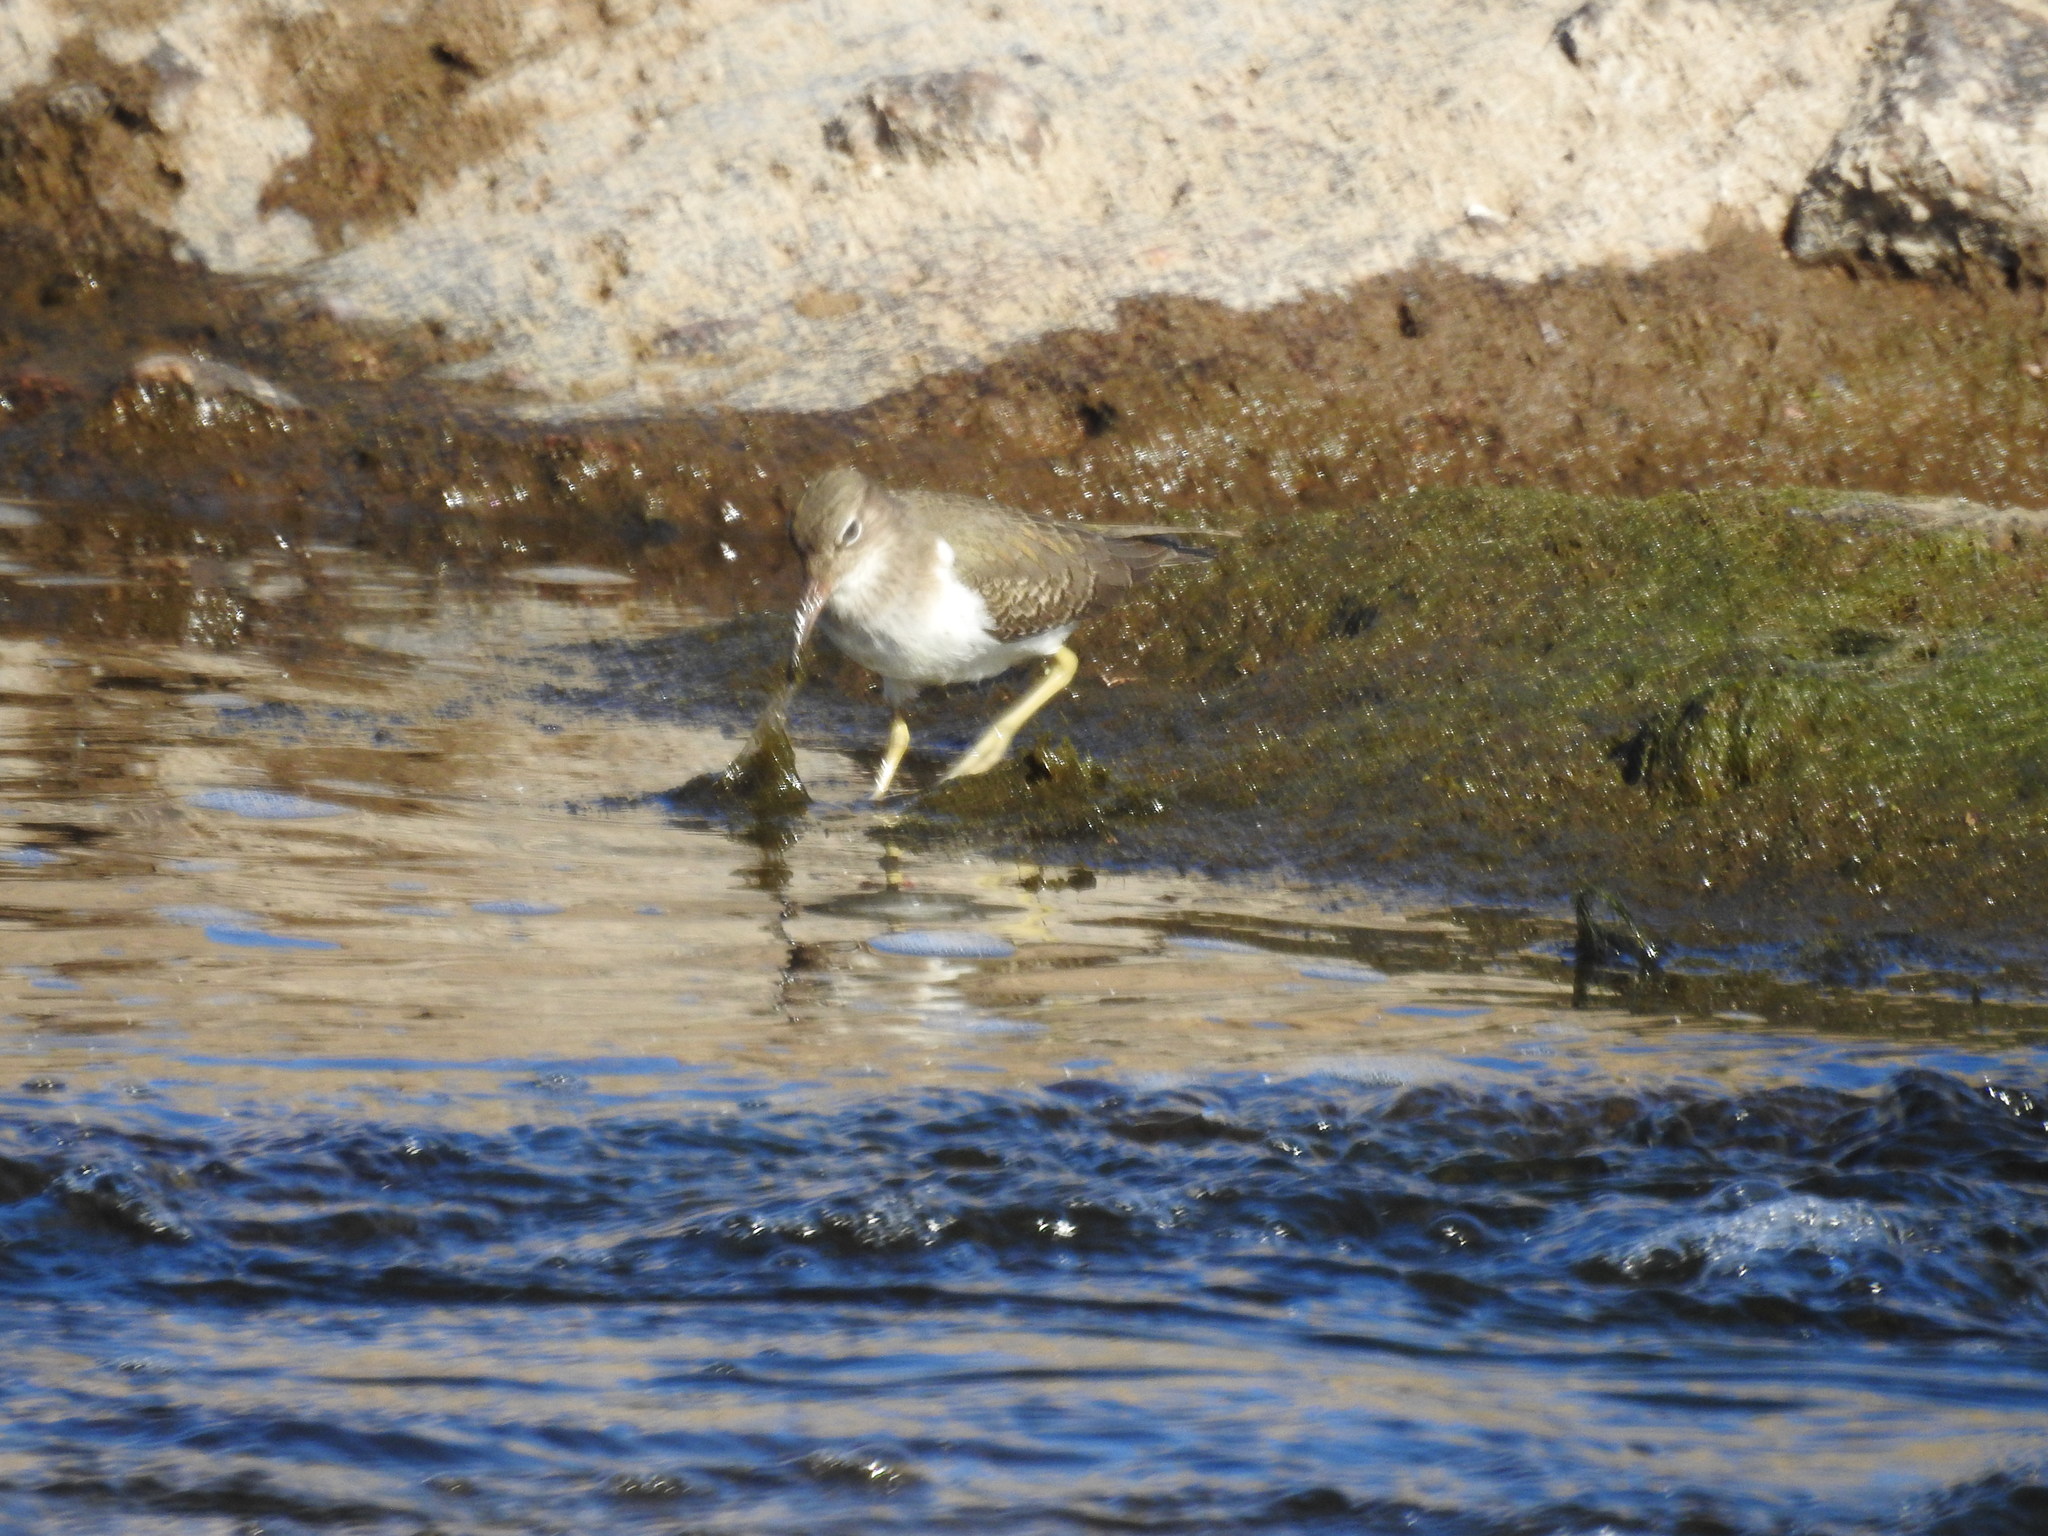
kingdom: Animalia
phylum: Chordata
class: Aves
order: Charadriiformes
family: Scolopacidae
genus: Actitis
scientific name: Actitis macularius
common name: Spotted sandpiper
